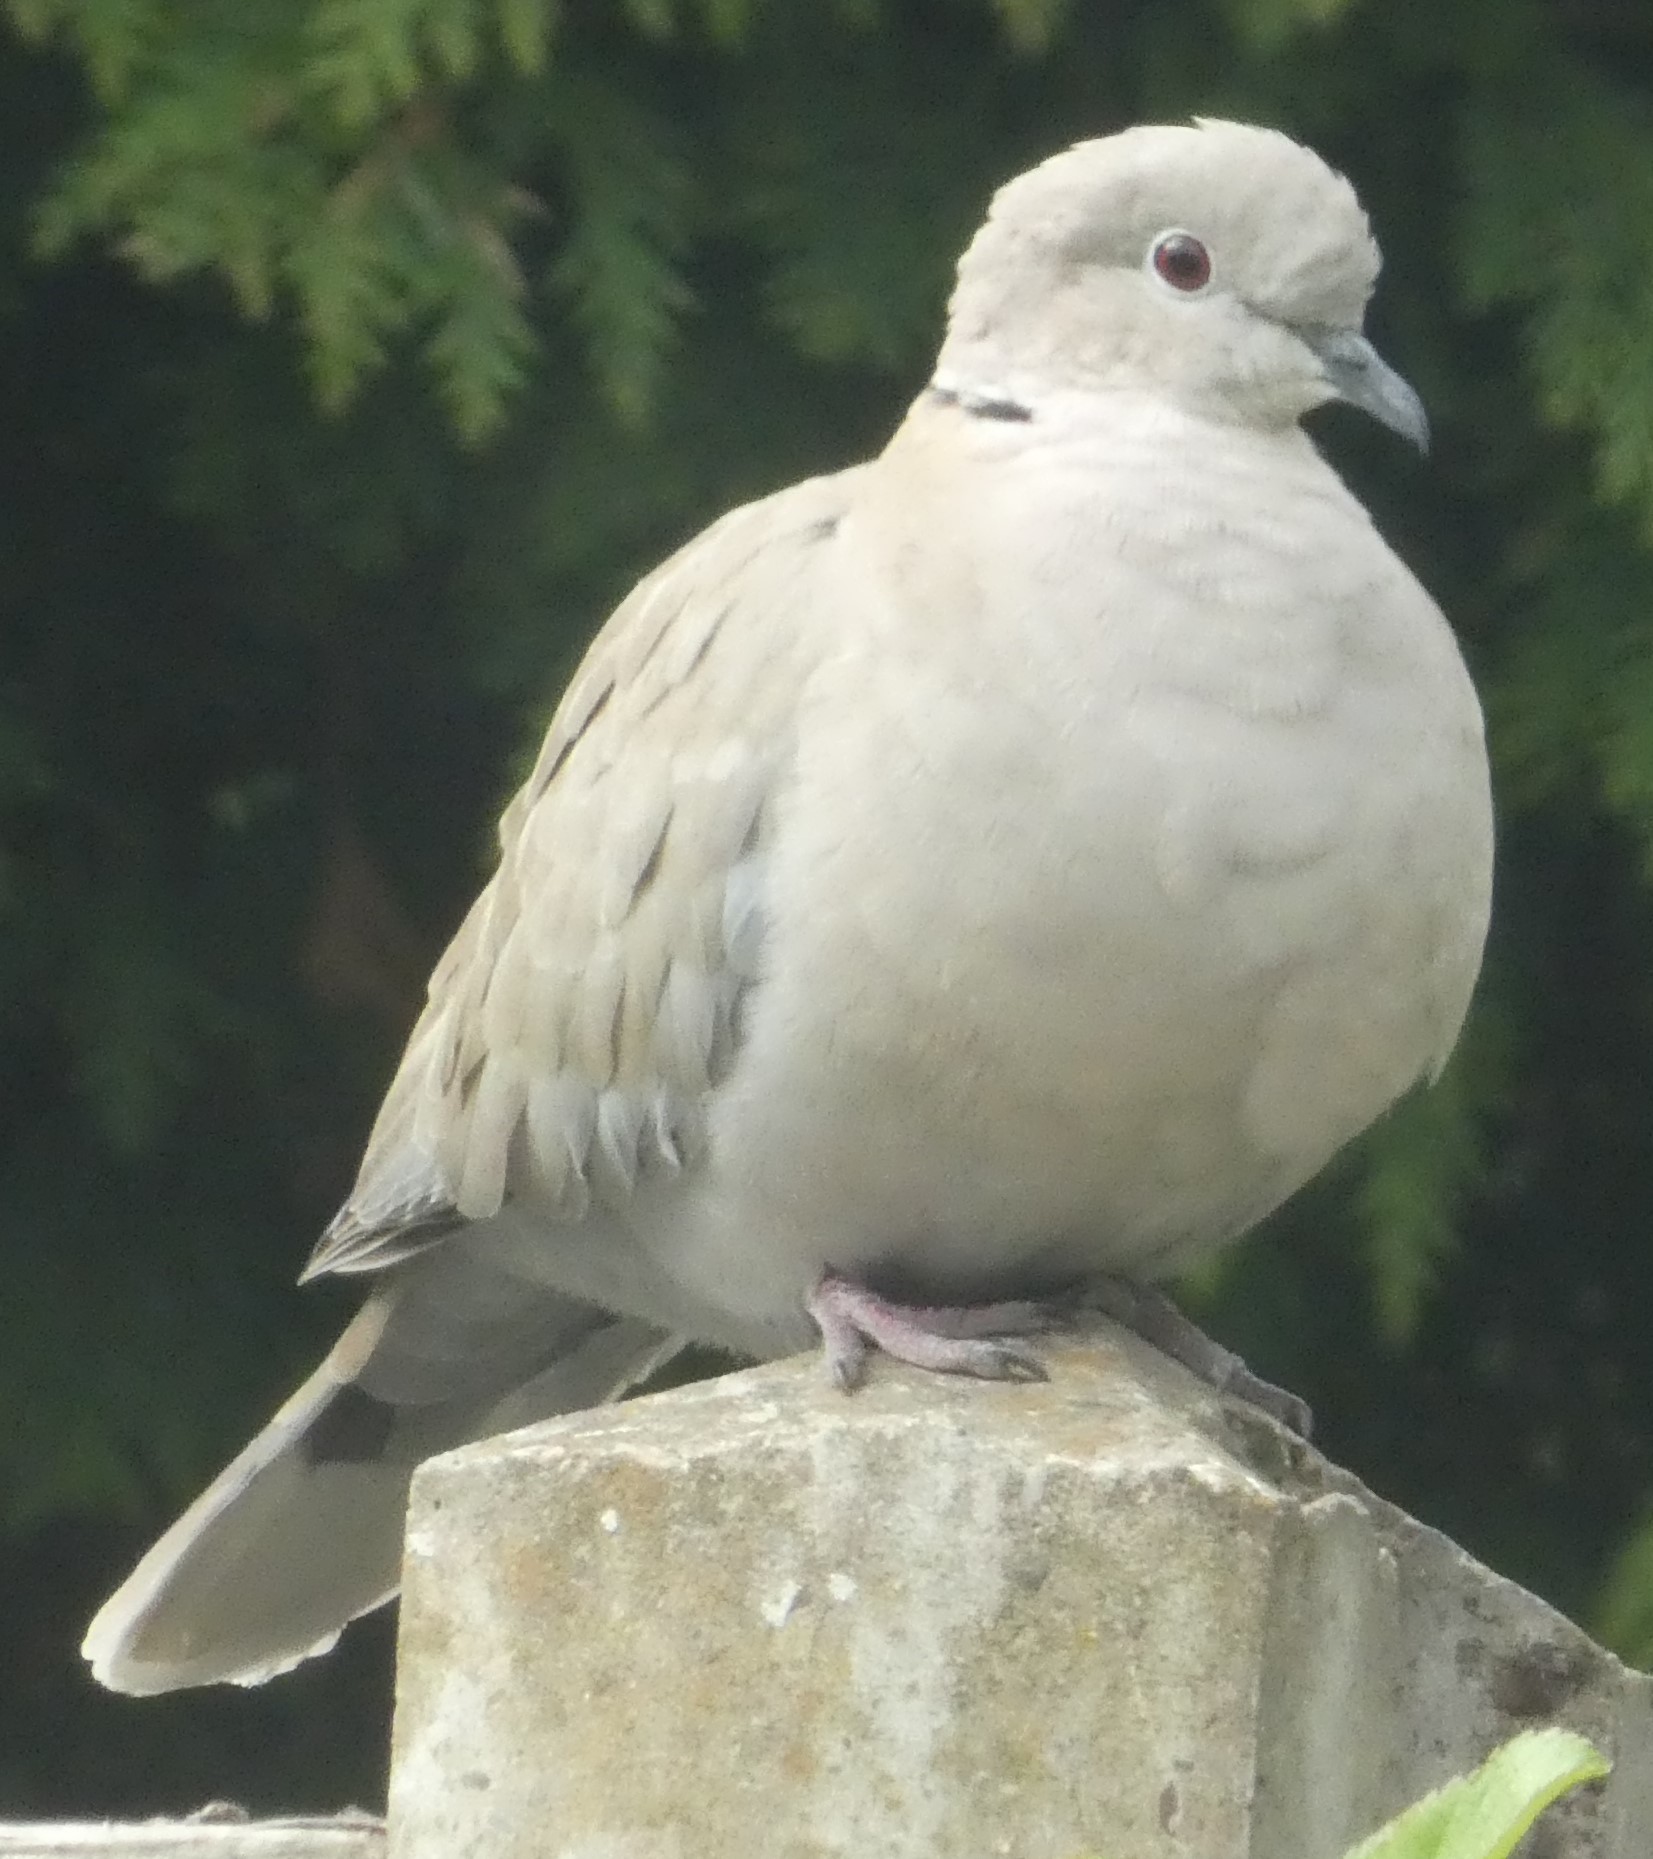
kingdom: Animalia
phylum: Chordata
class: Aves
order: Columbiformes
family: Columbidae
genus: Streptopelia
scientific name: Streptopelia decaocto
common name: Eurasian collared dove
